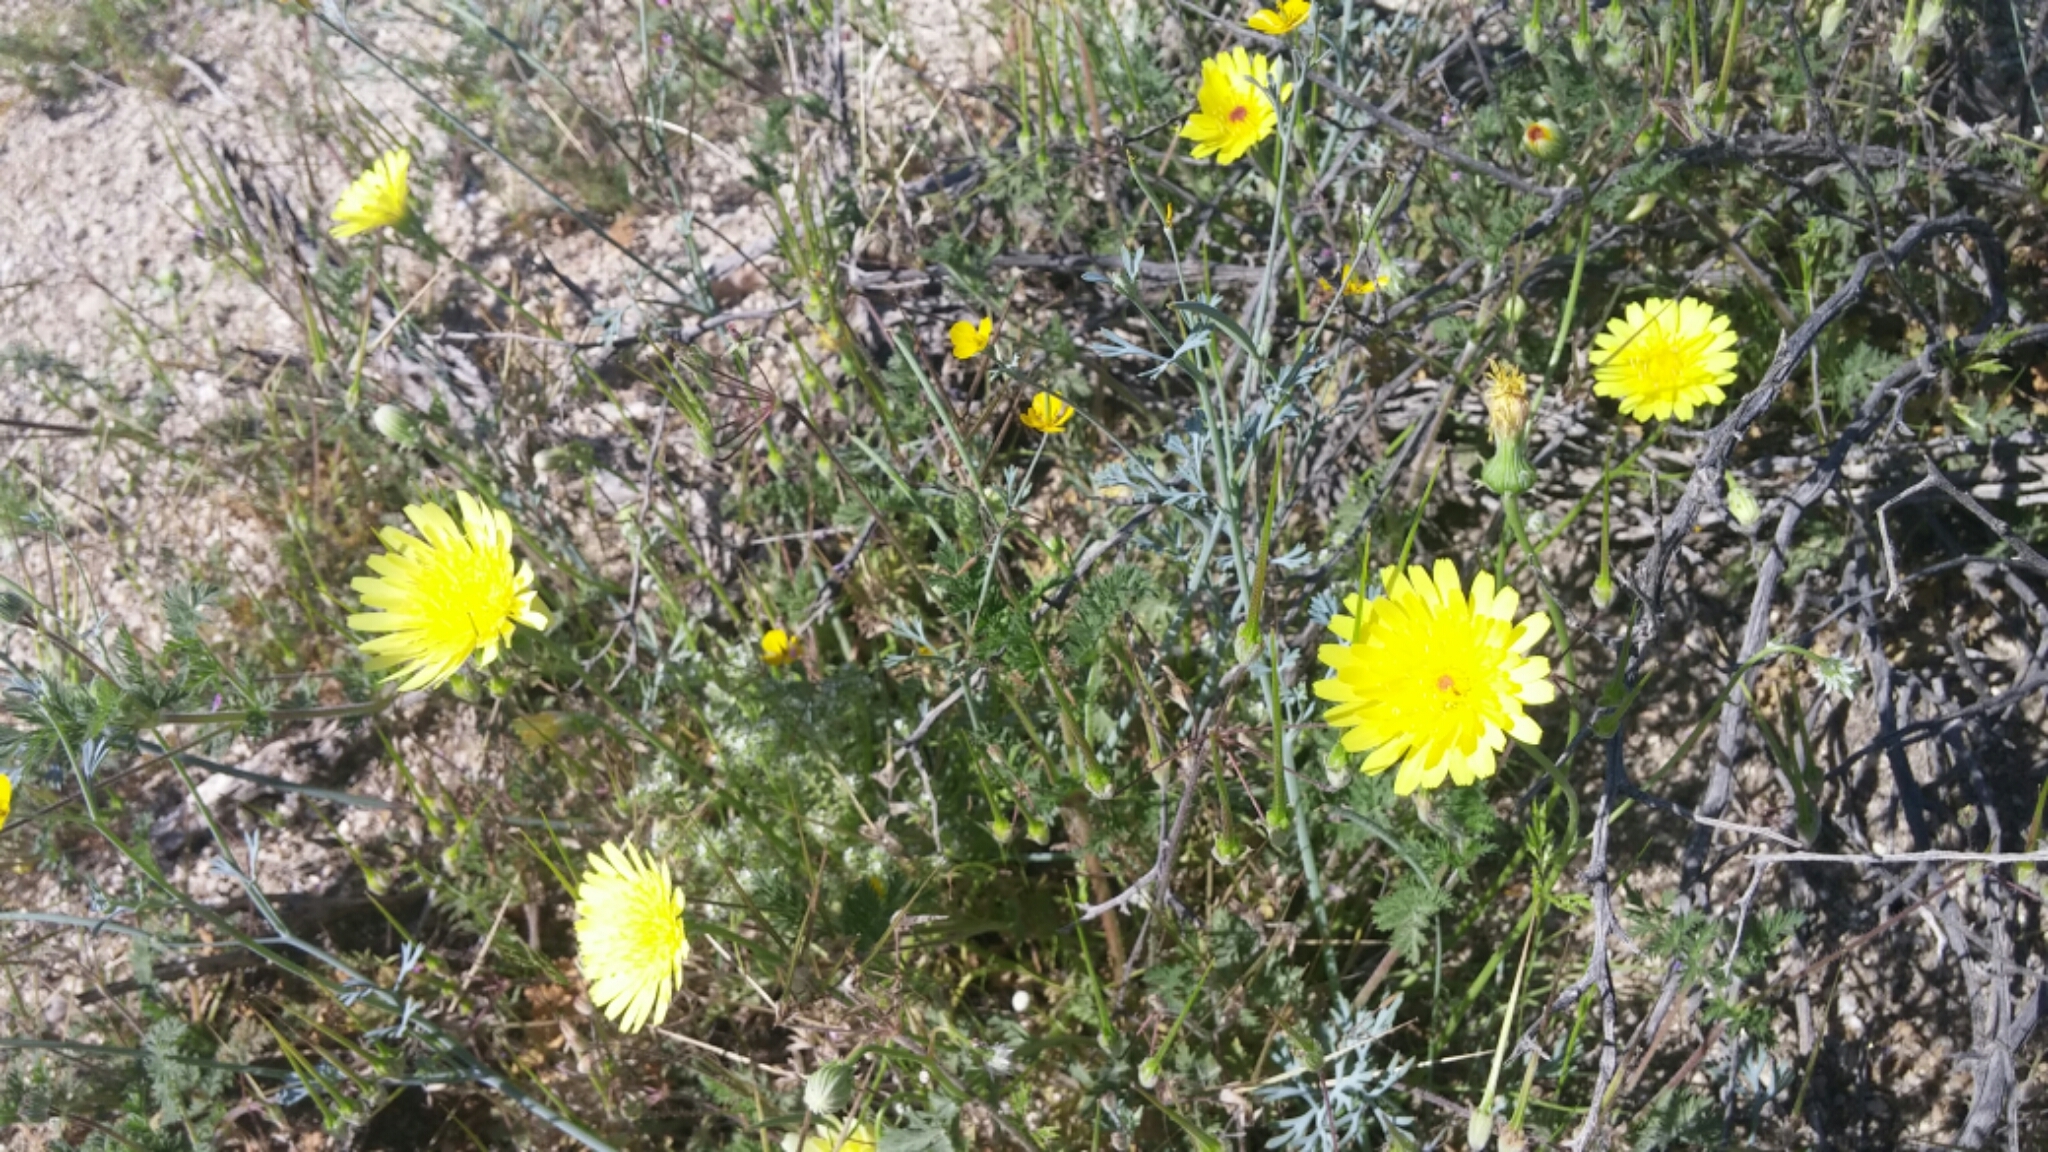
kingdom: Plantae
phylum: Tracheophyta
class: Magnoliopsida
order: Asterales
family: Asteraceae
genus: Malacothrix
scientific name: Malacothrix glabrata
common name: Smooth desert-dandelion
